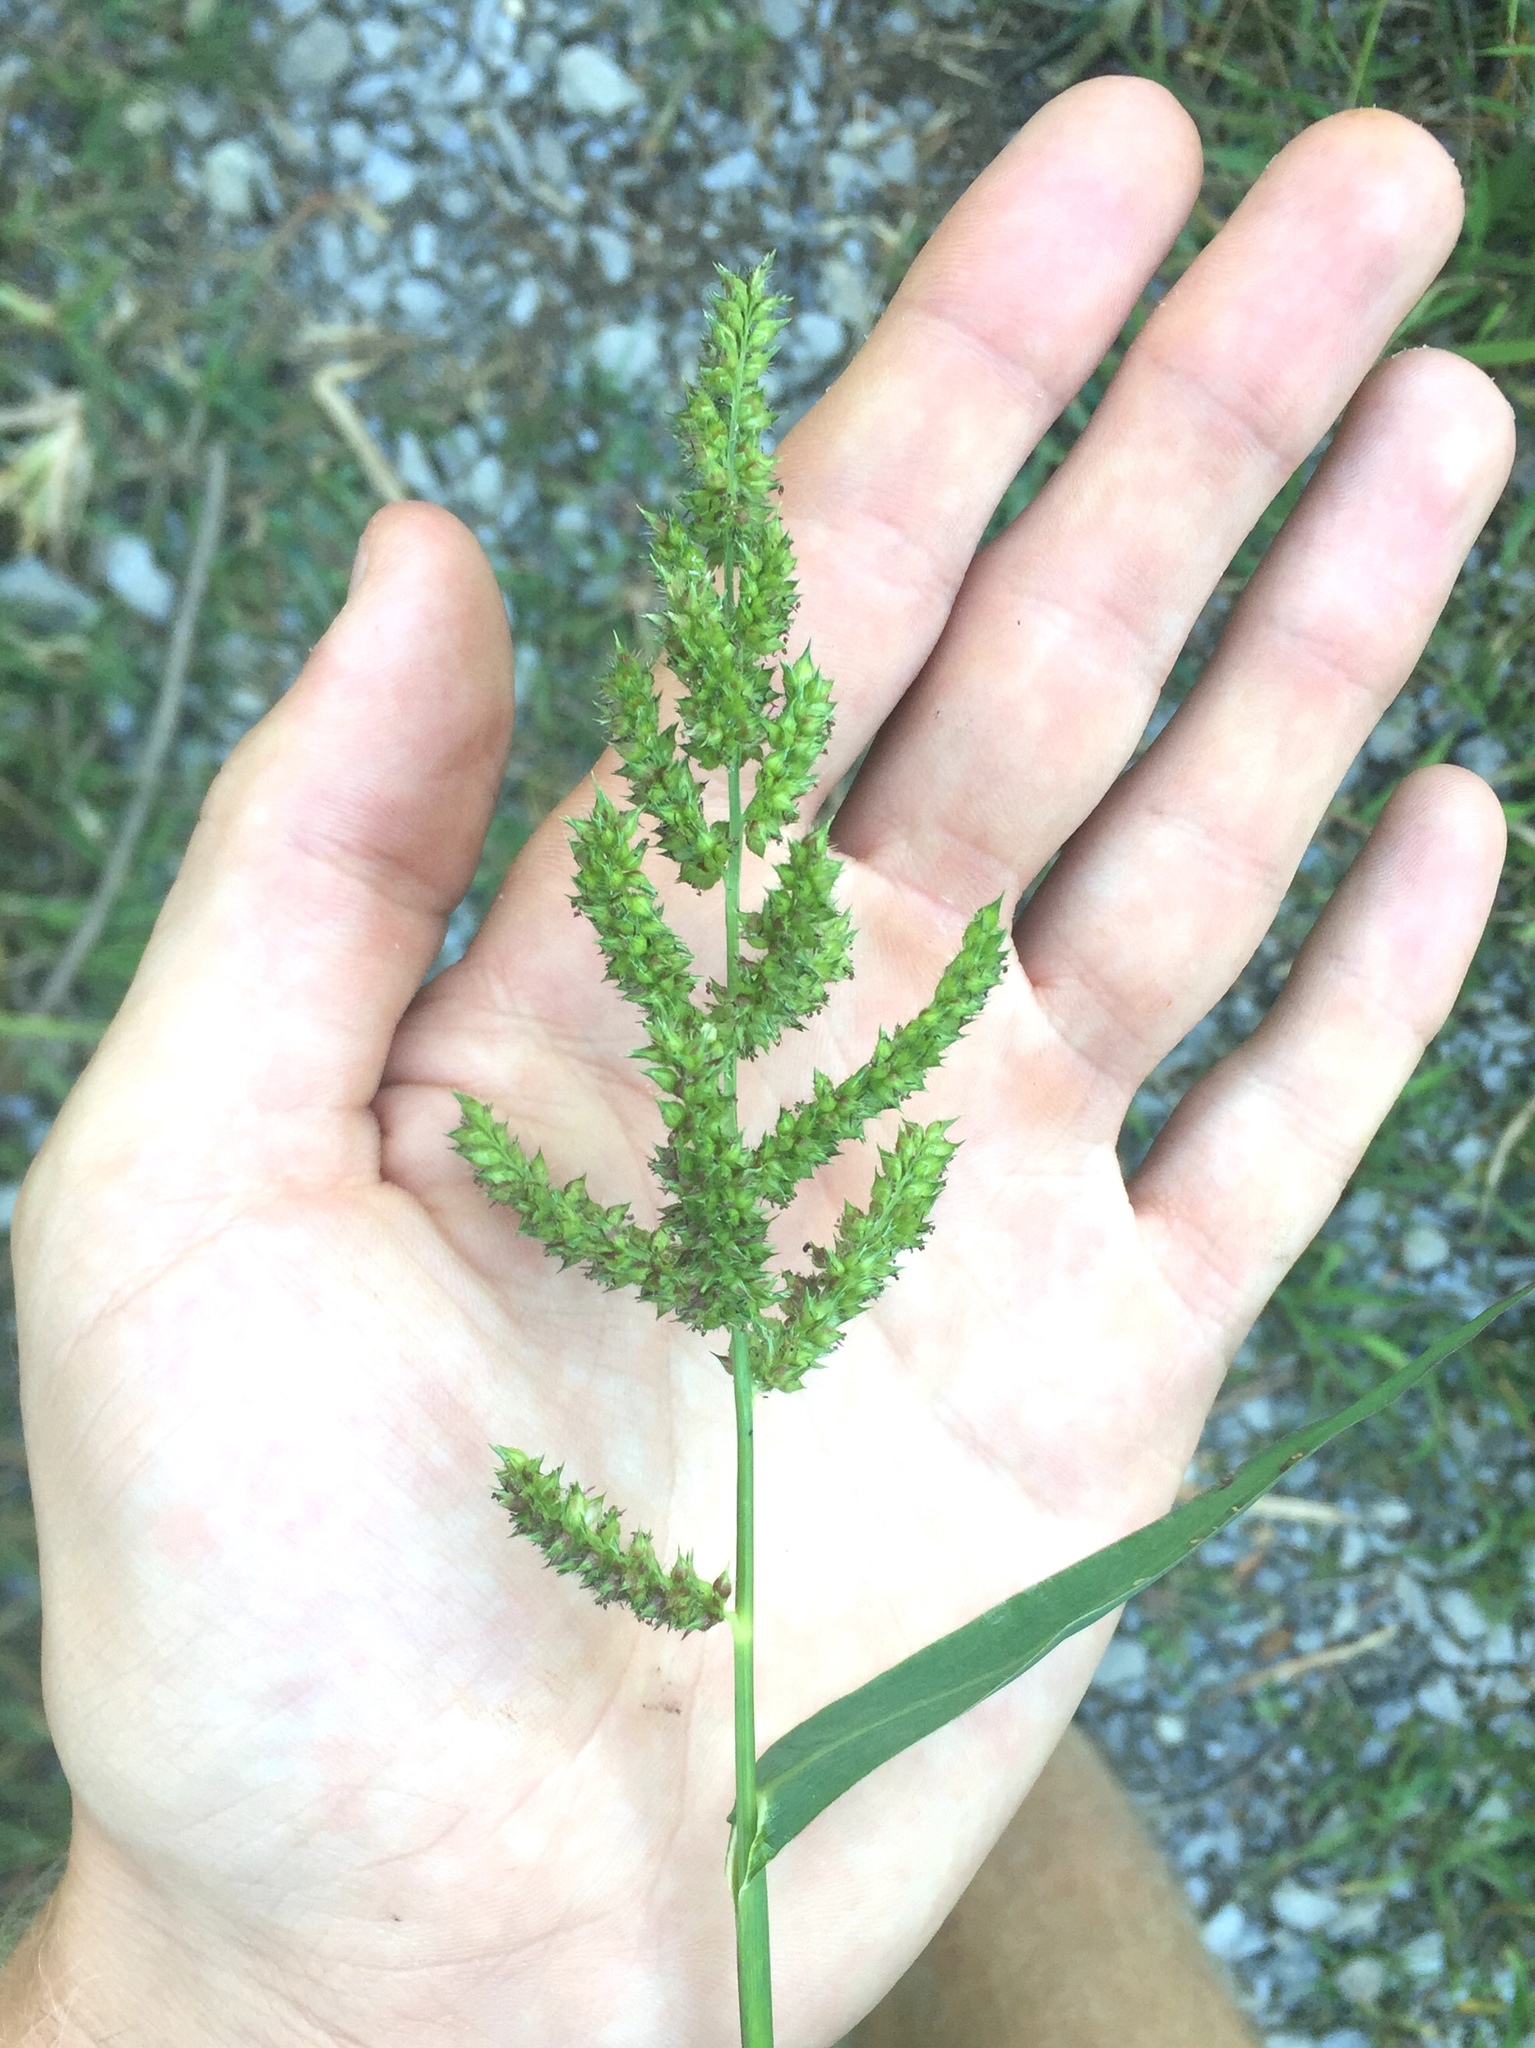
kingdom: Plantae
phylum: Tracheophyta
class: Liliopsida
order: Poales
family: Poaceae
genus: Echinochloa
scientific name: Echinochloa crus-galli
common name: Cockspur
